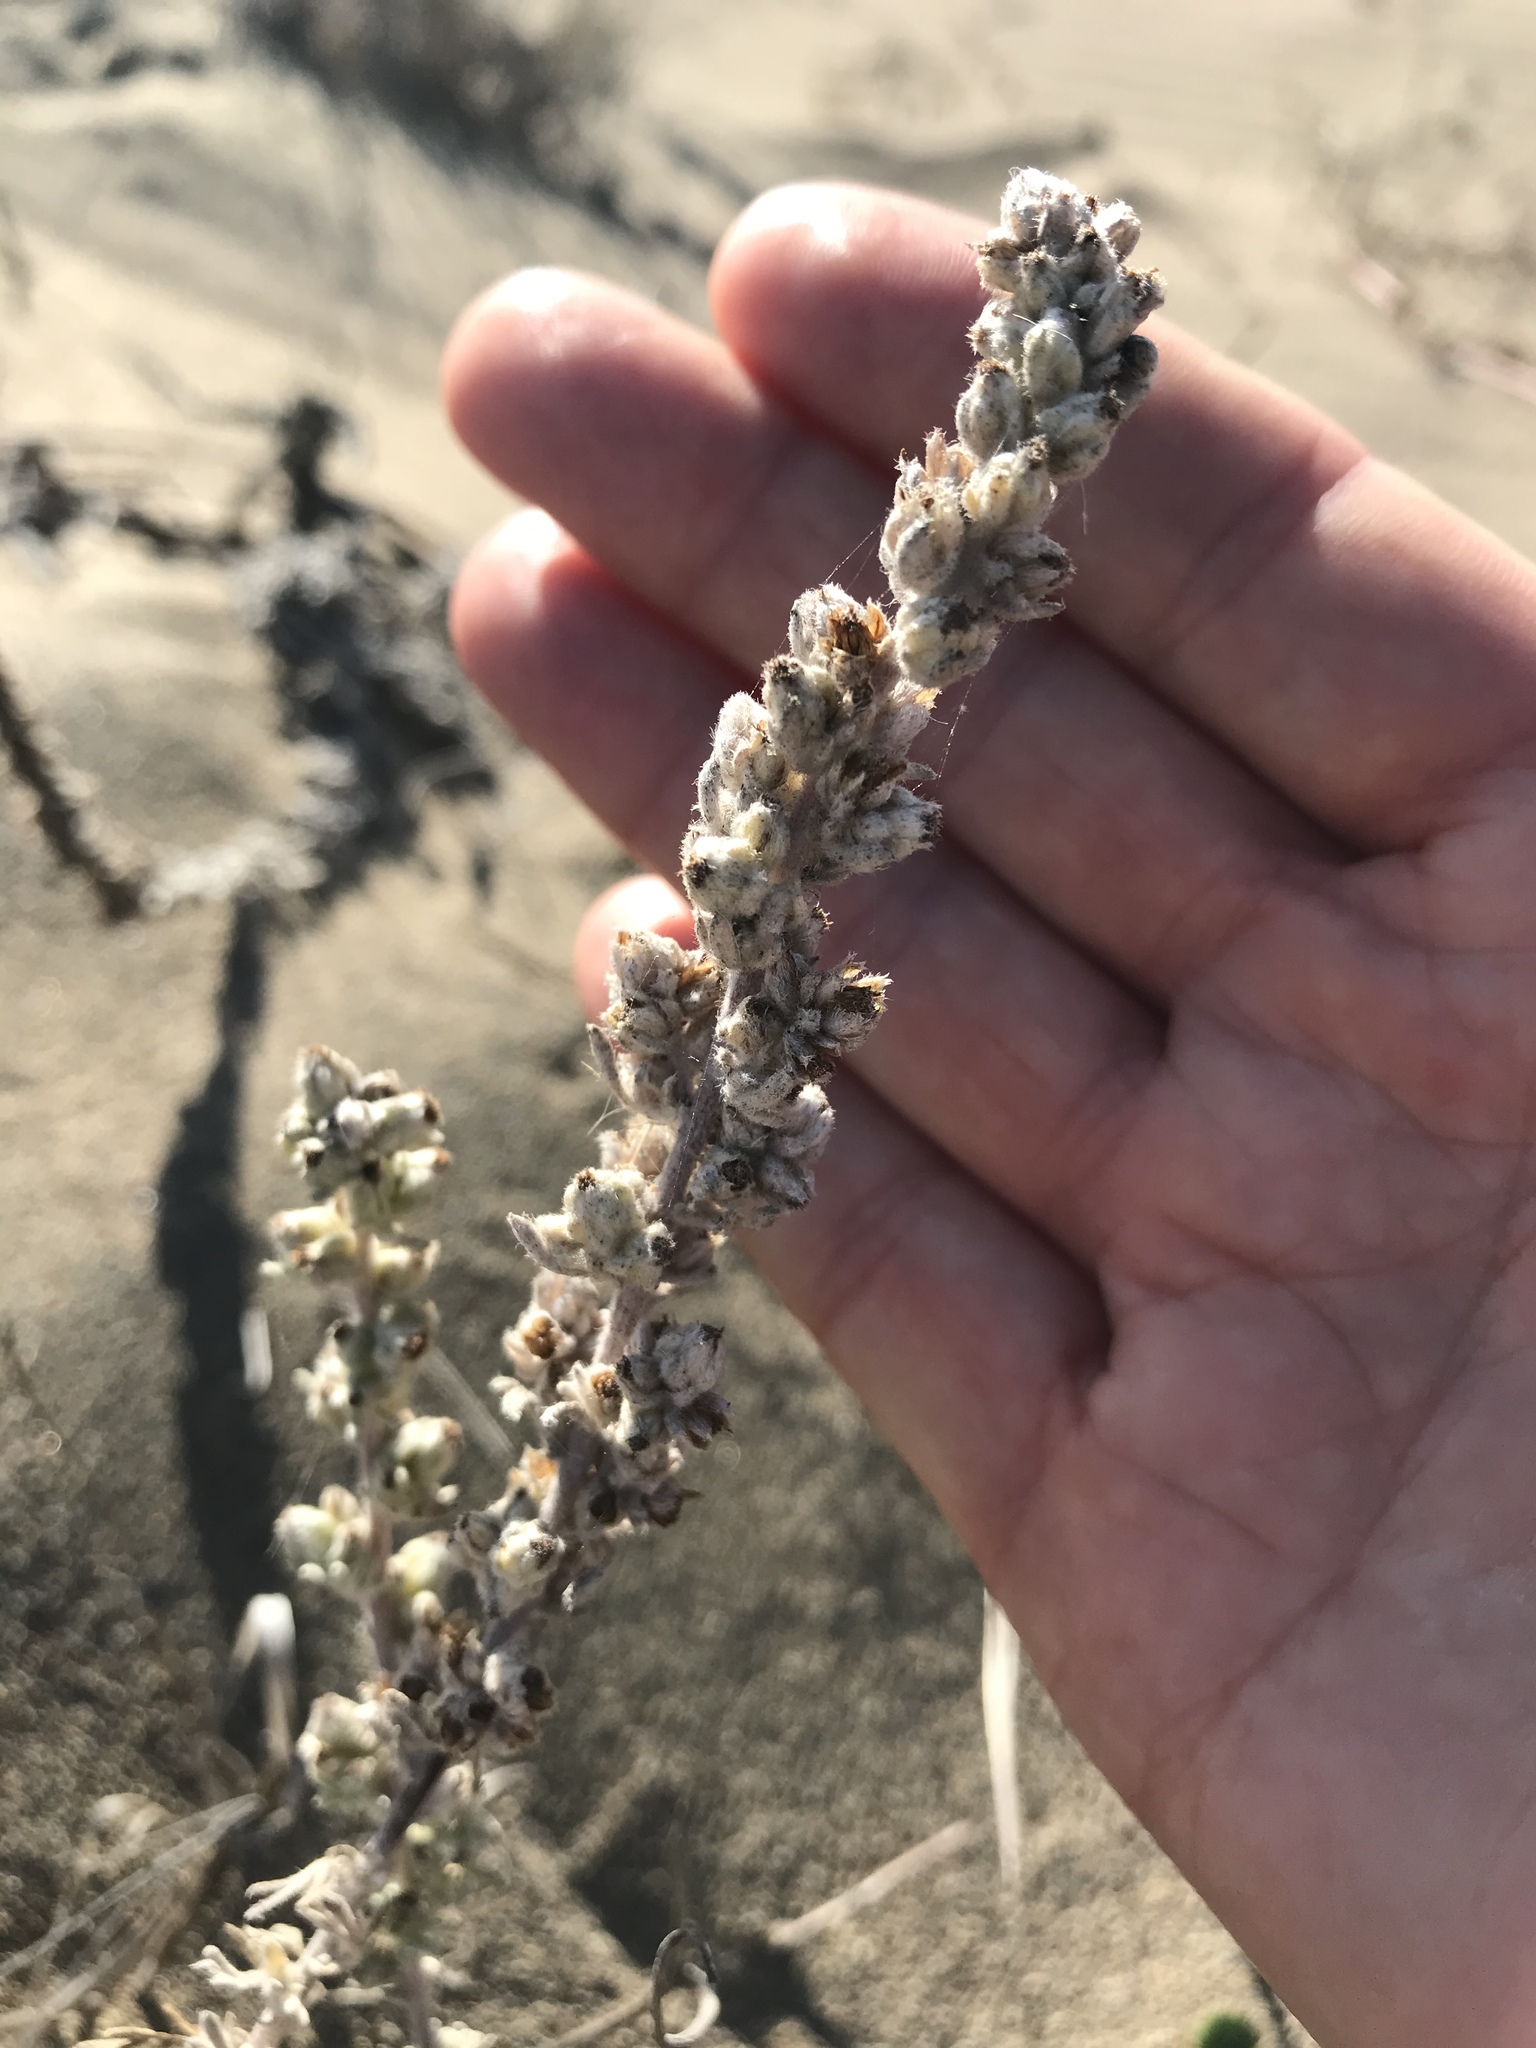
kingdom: Plantae
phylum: Tracheophyta
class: Magnoliopsida
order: Asterales
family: Asteraceae
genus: Artemisia
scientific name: Artemisia pycnocephala
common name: Coastal sagewort
